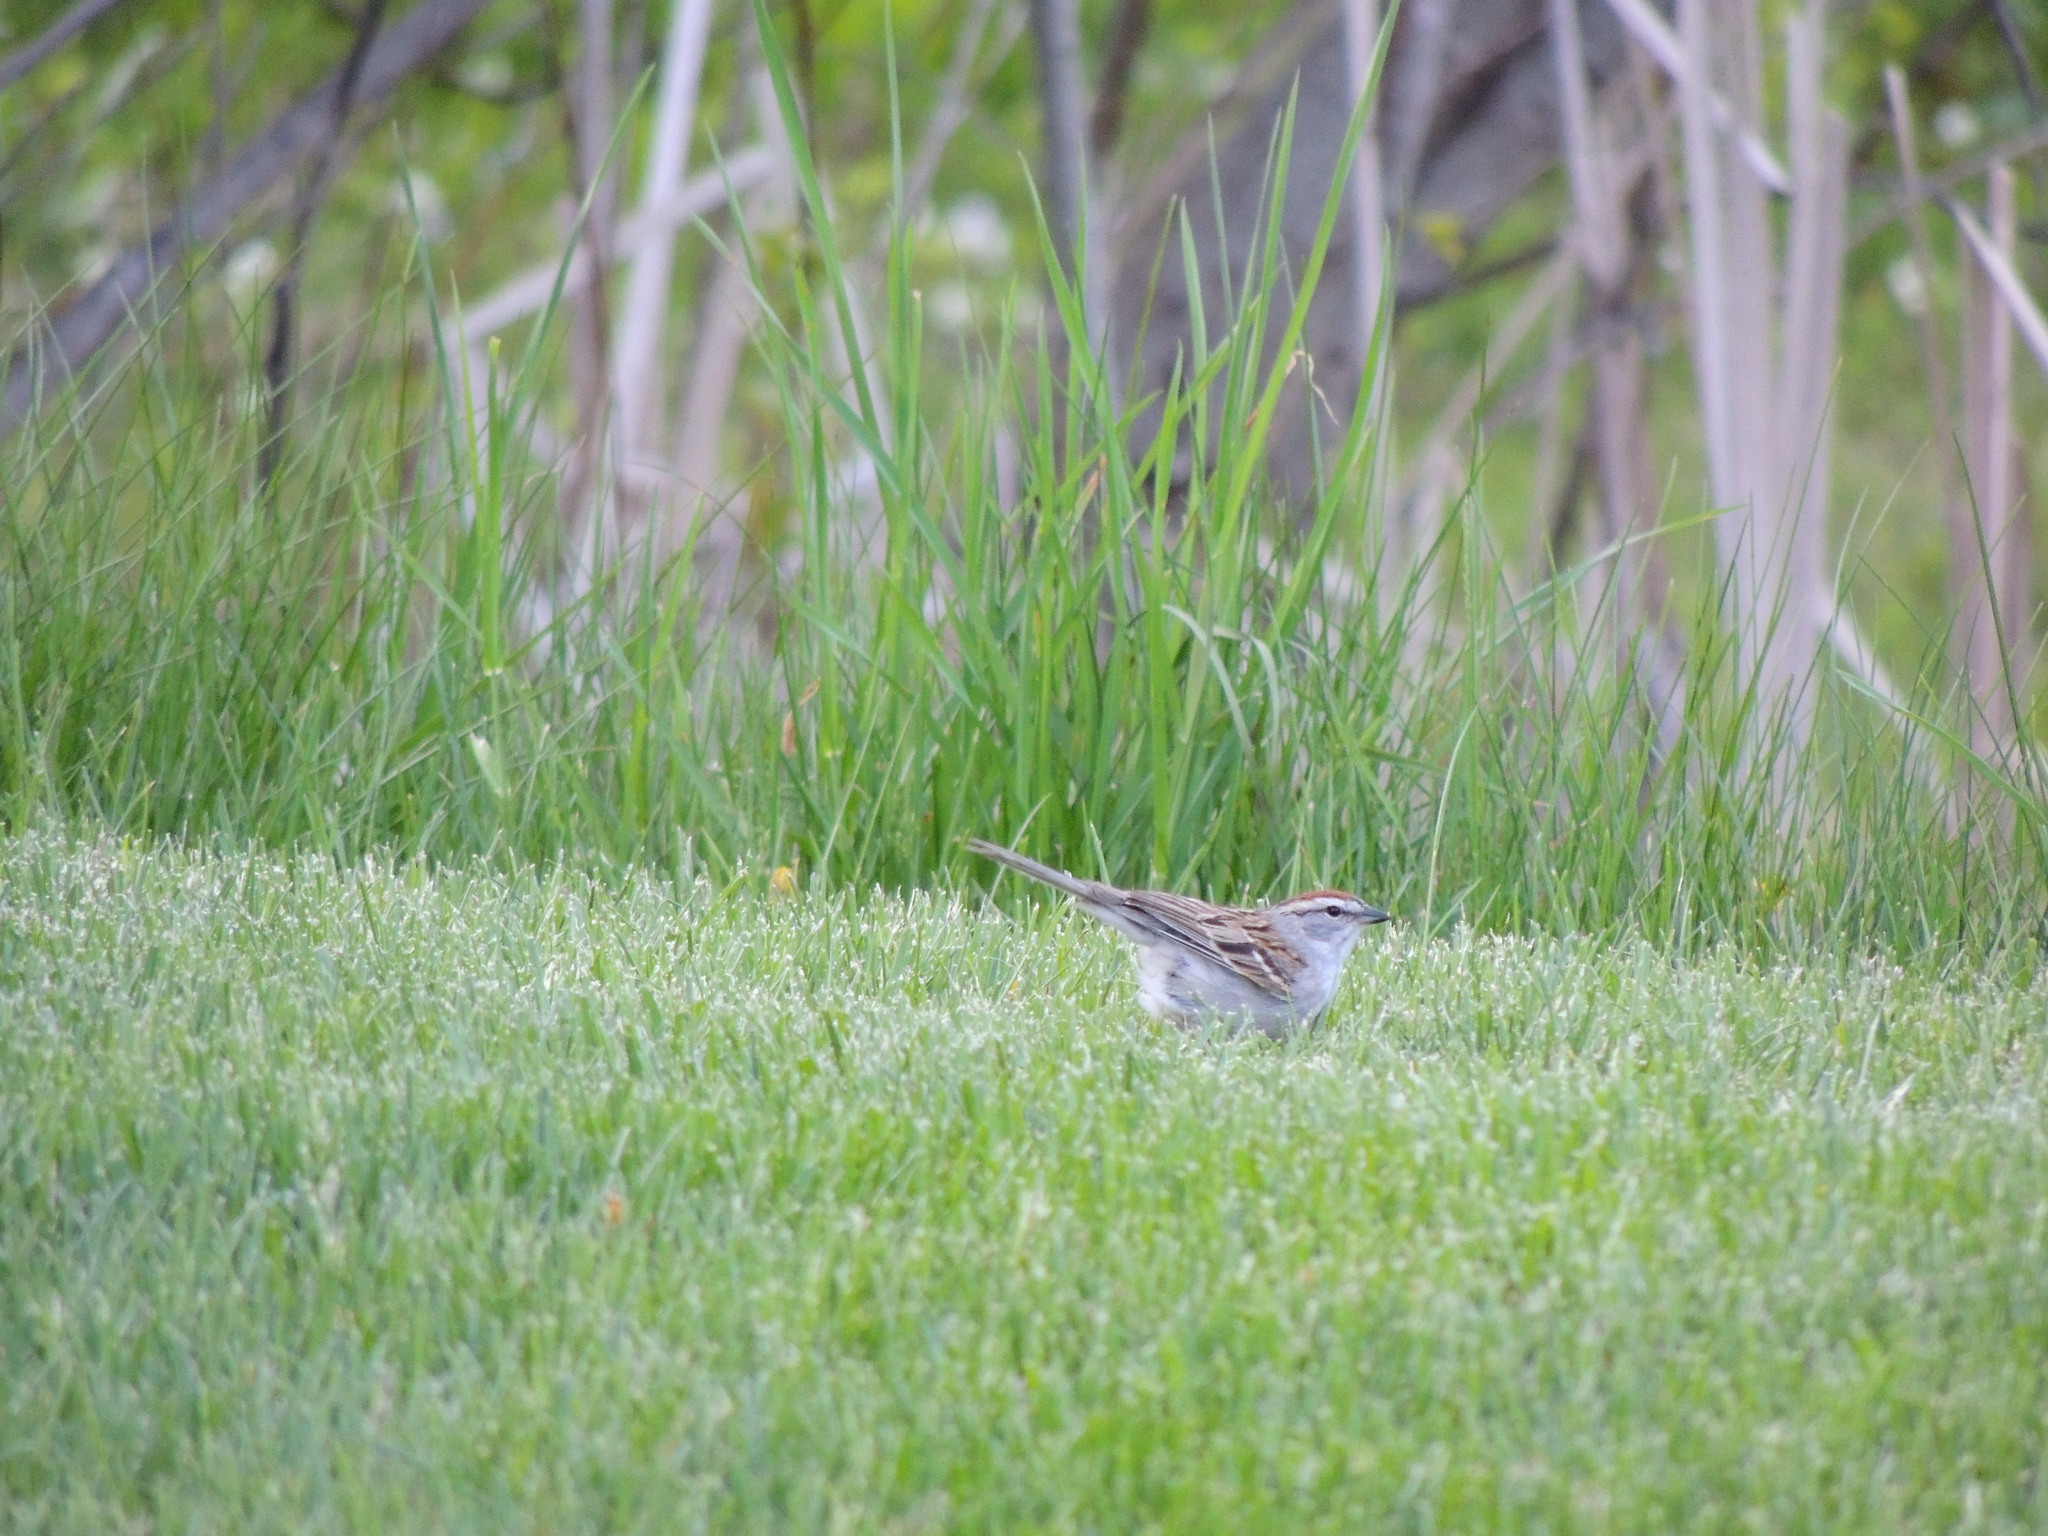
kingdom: Animalia
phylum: Chordata
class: Aves
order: Passeriformes
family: Passerellidae
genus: Spizella
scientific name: Spizella passerina
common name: Chipping sparrow
